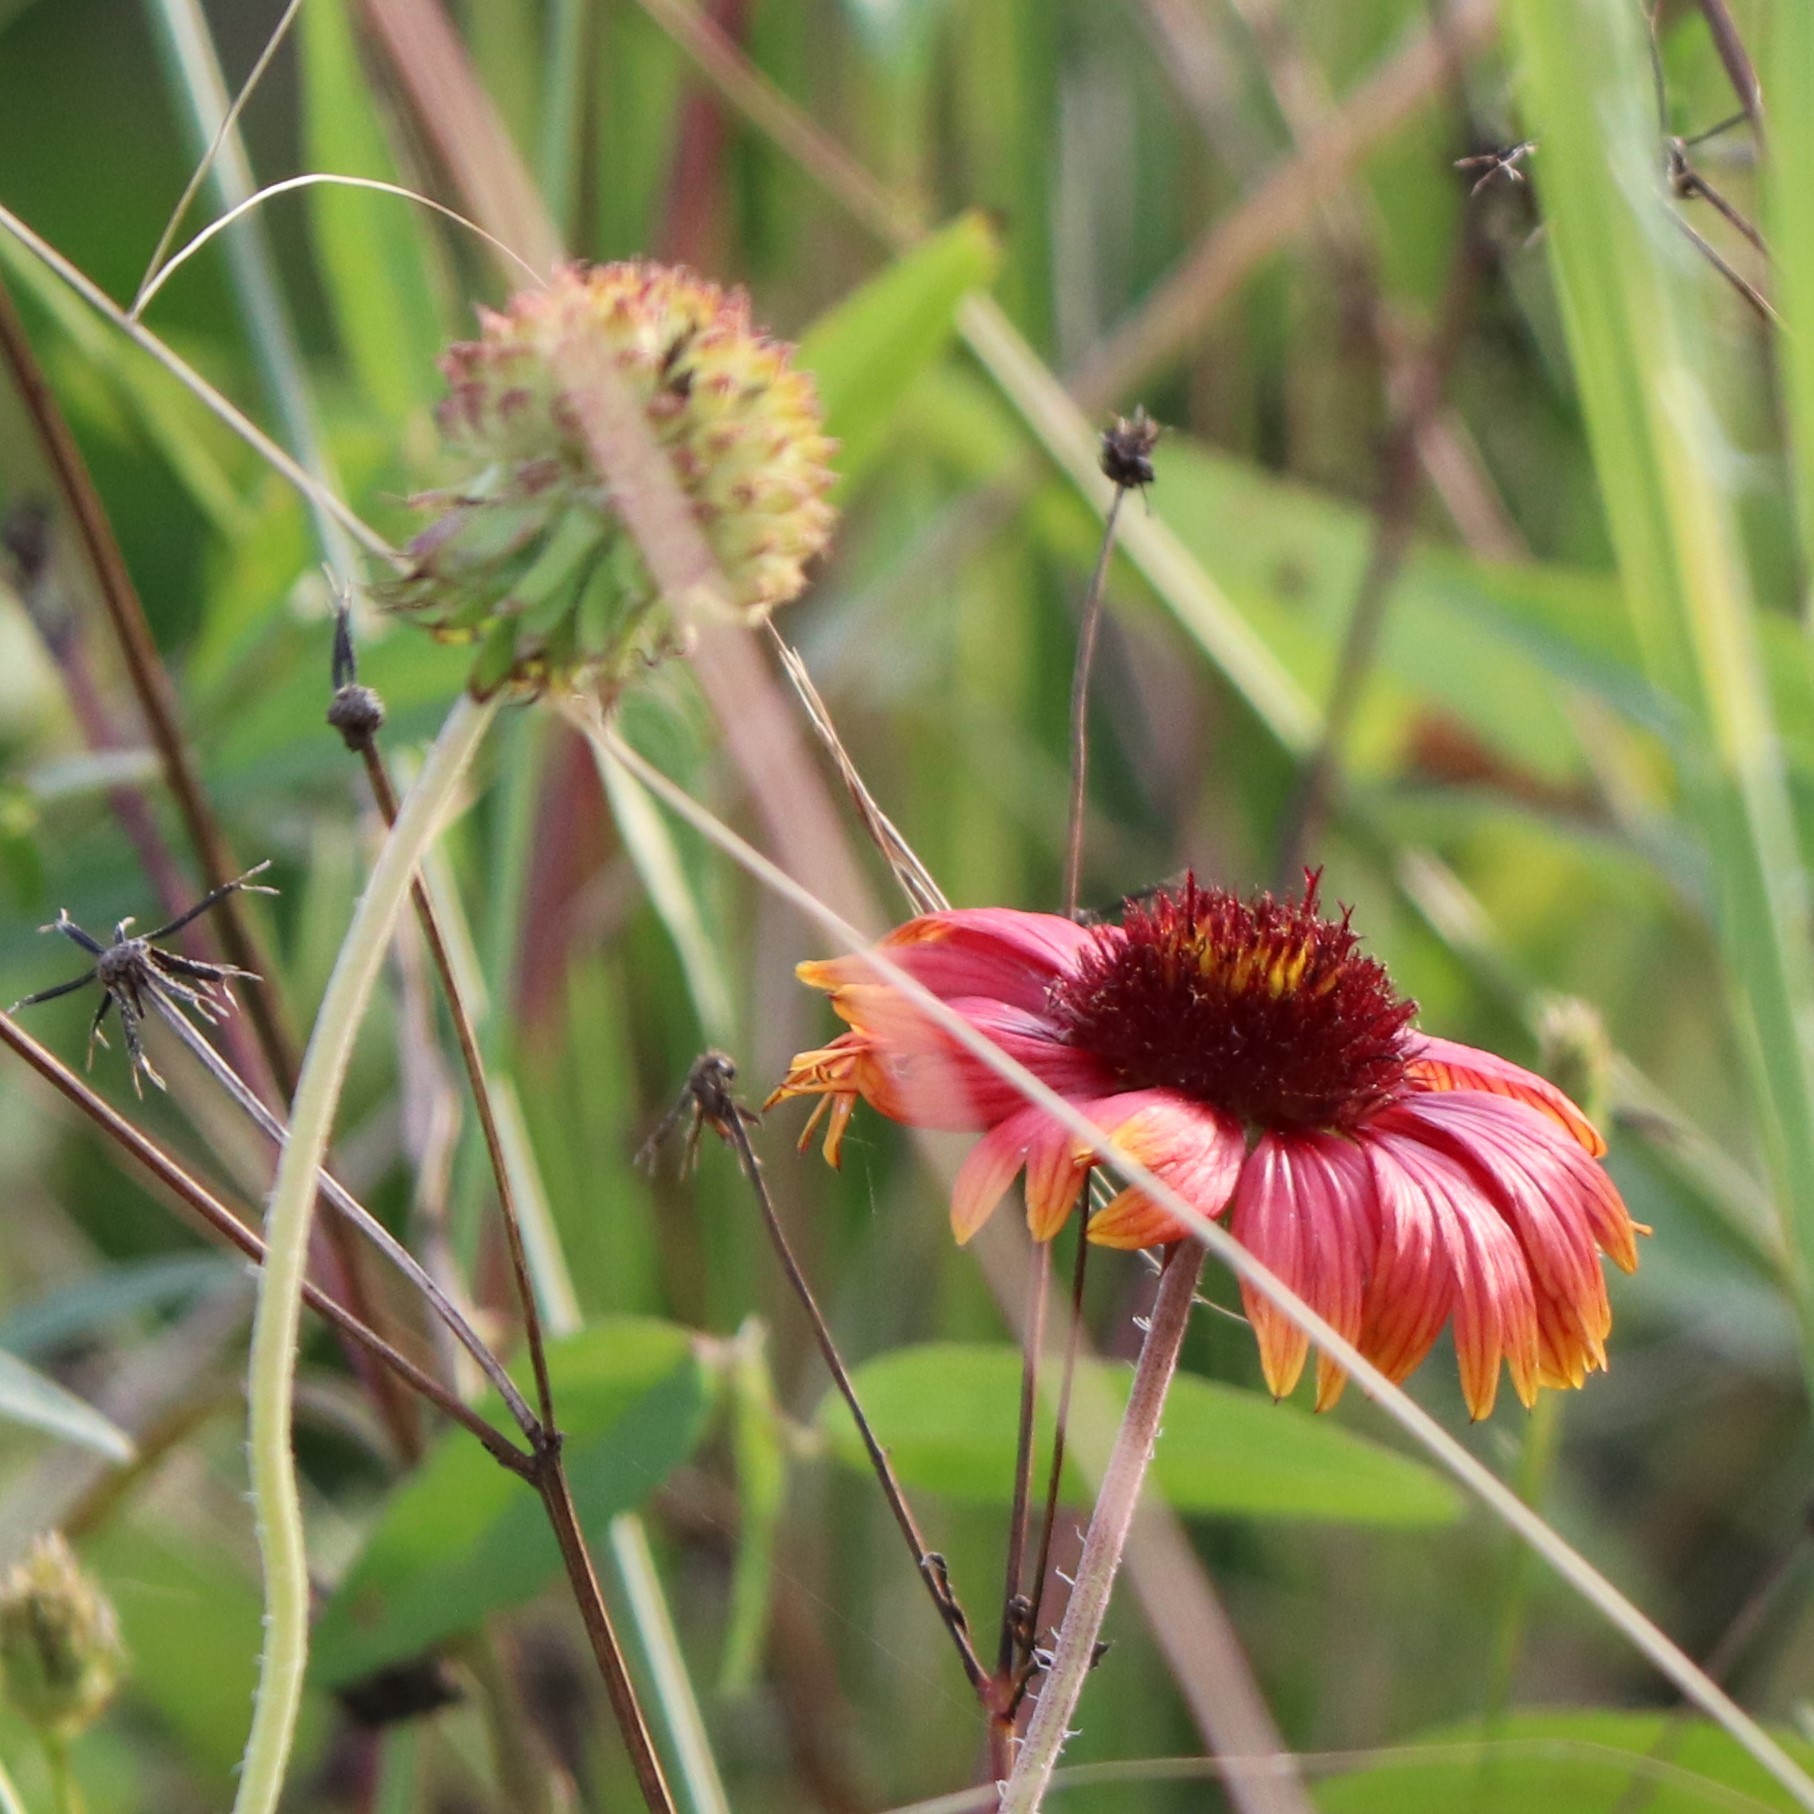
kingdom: Plantae
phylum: Tracheophyta
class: Magnoliopsida
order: Asterales
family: Asteraceae
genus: Gaillardia
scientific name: Gaillardia pulchella
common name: Firewheel
